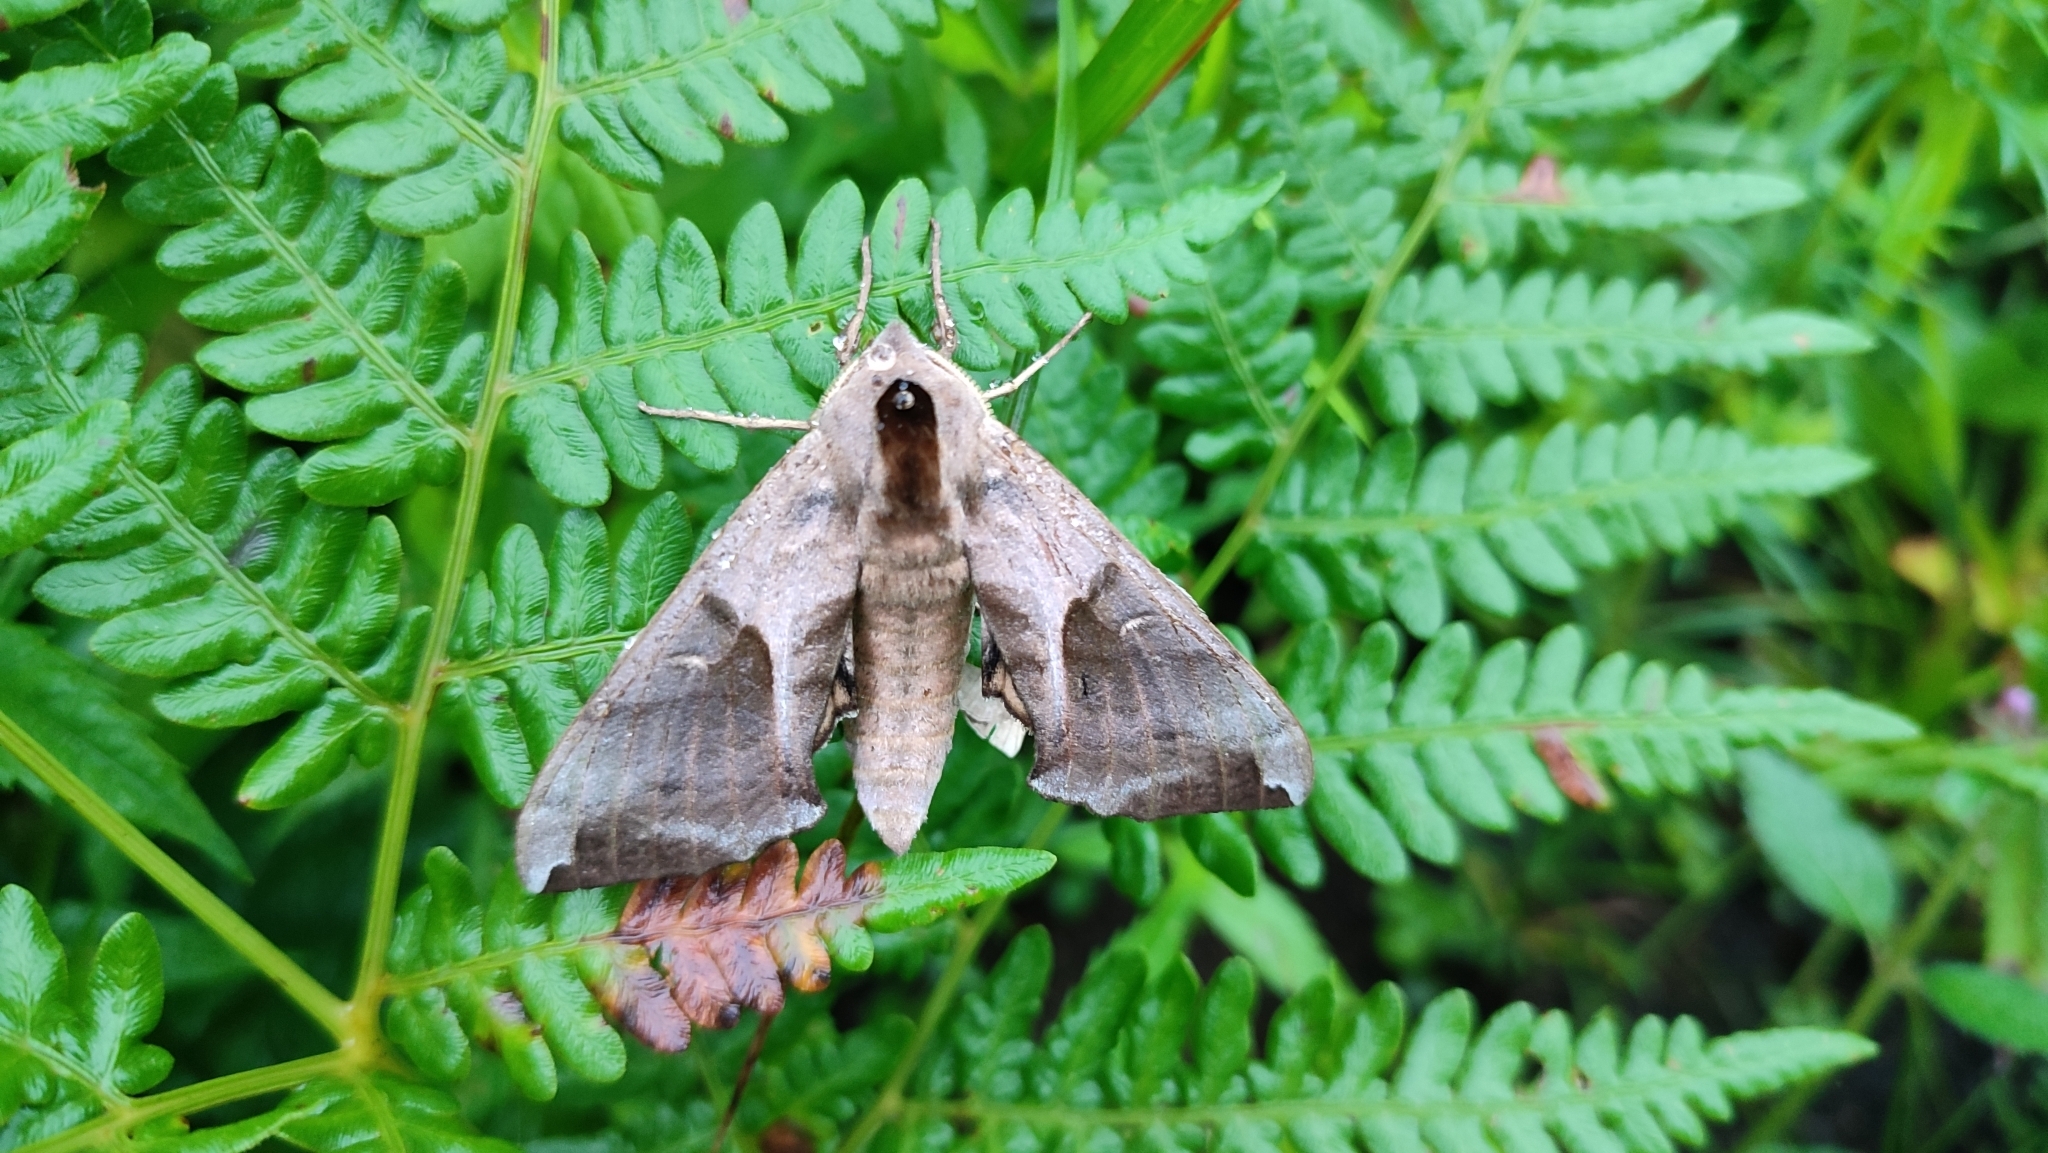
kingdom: Animalia
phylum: Arthropoda
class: Insecta
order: Lepidoptera
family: Sphingidae
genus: Smerinthus
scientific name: Smerinthus planus
